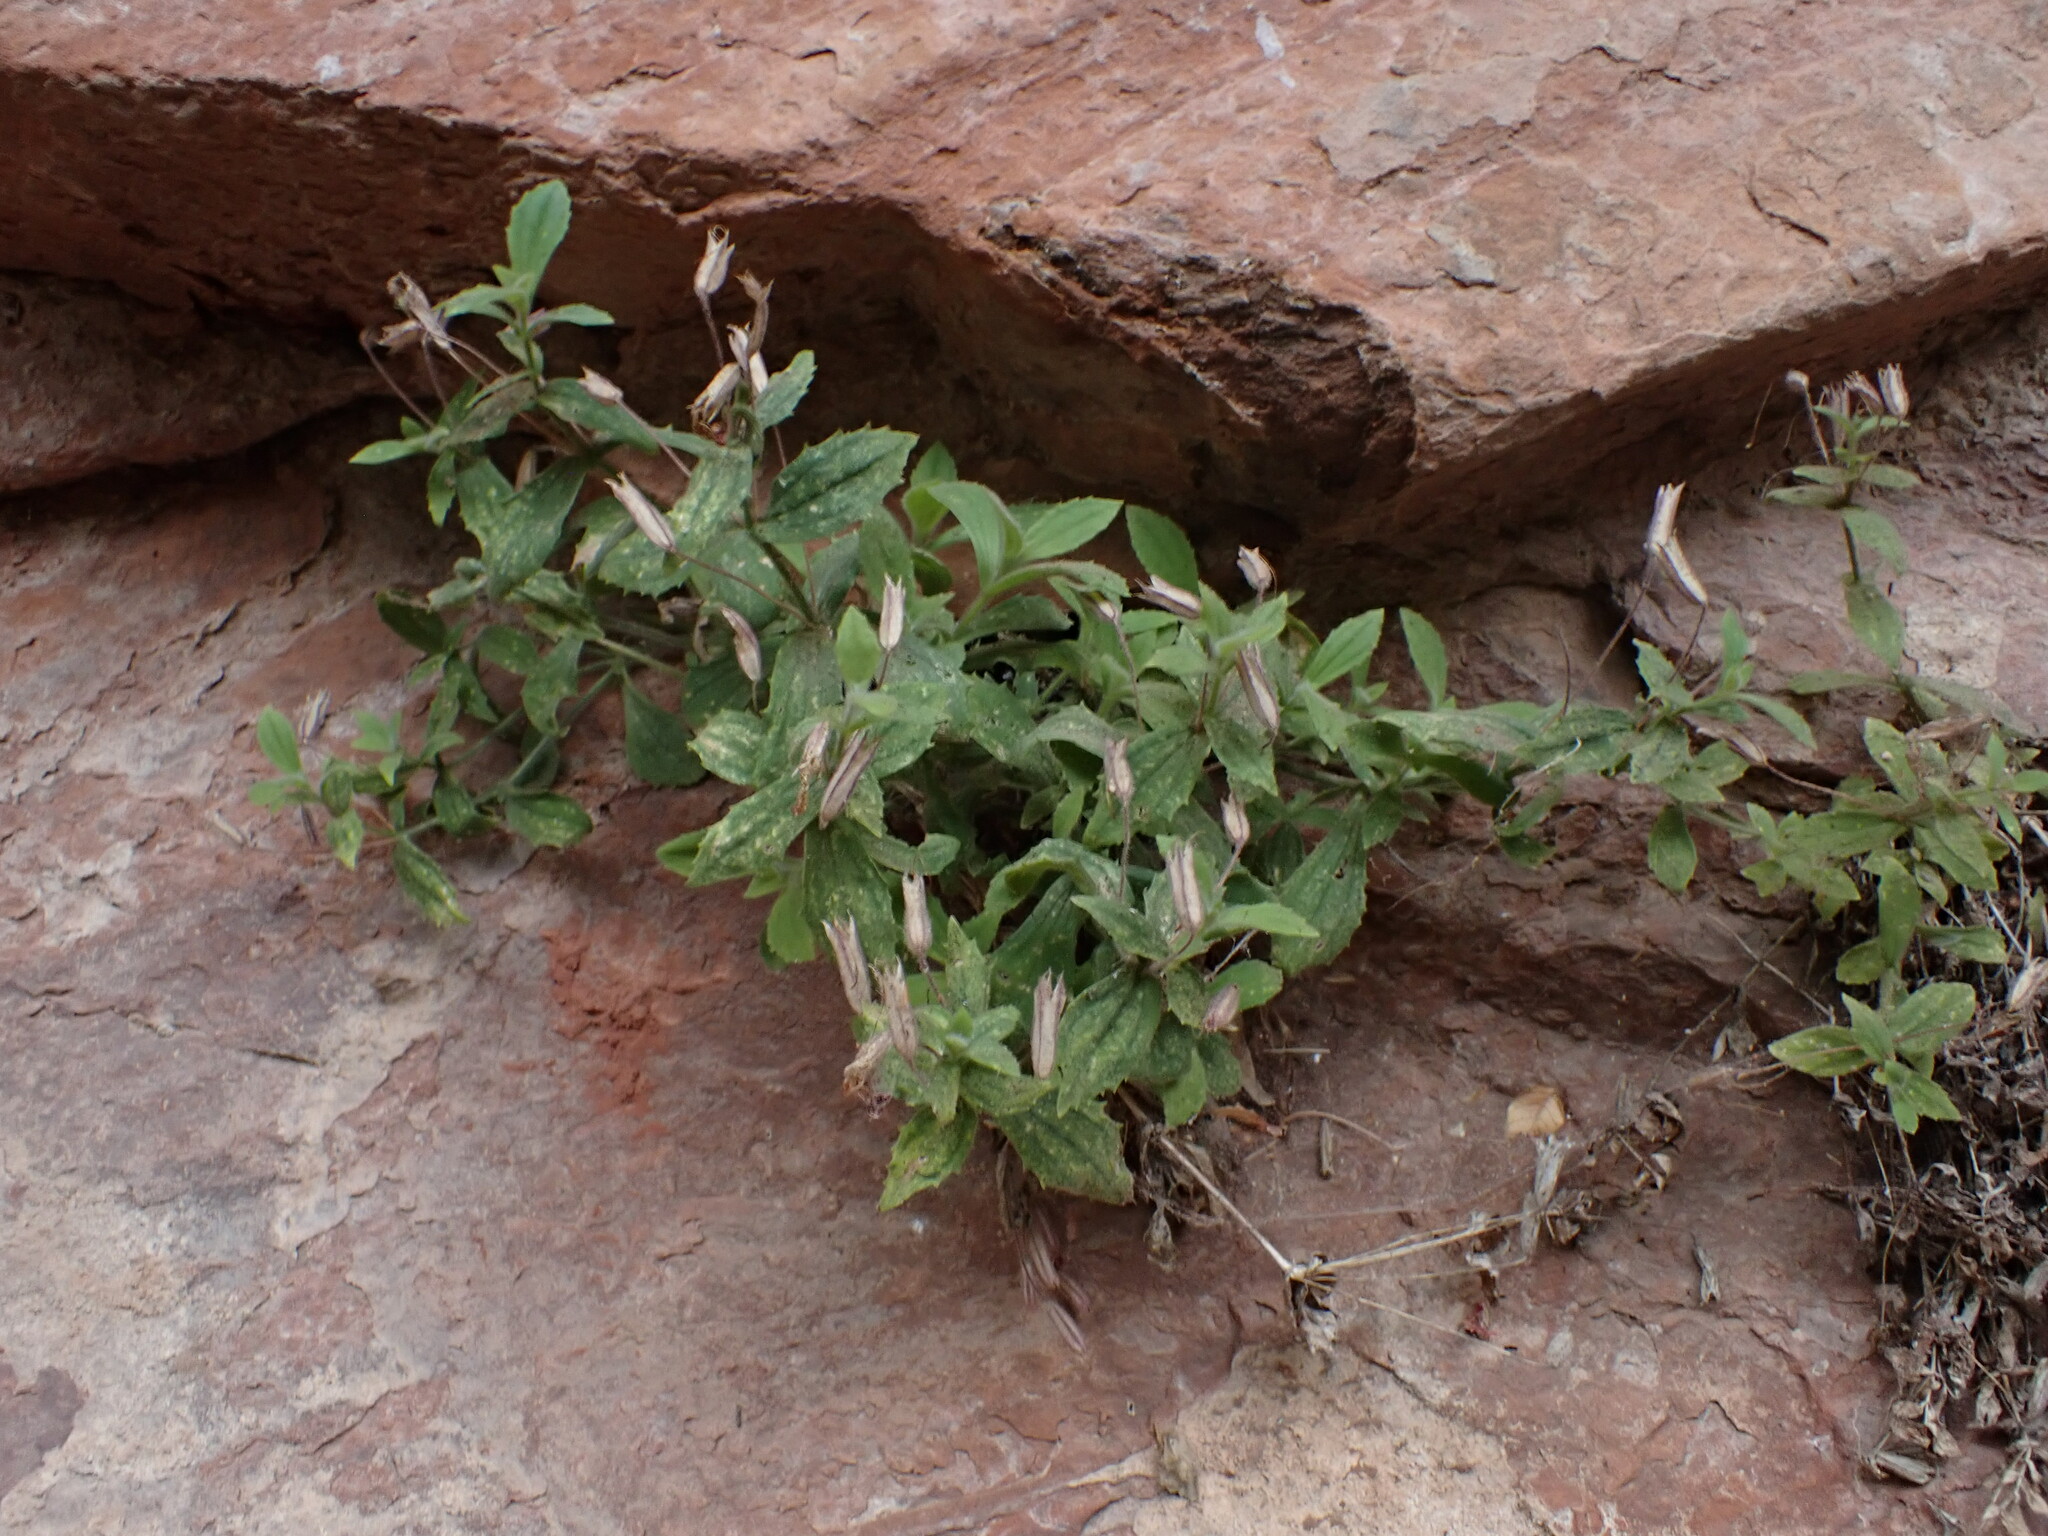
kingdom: Plantae
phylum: Tracheophyta
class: Magnoliopsida
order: Lamiales
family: Phrymaceae
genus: Erythranthe
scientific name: Erythranthe verbenacea
